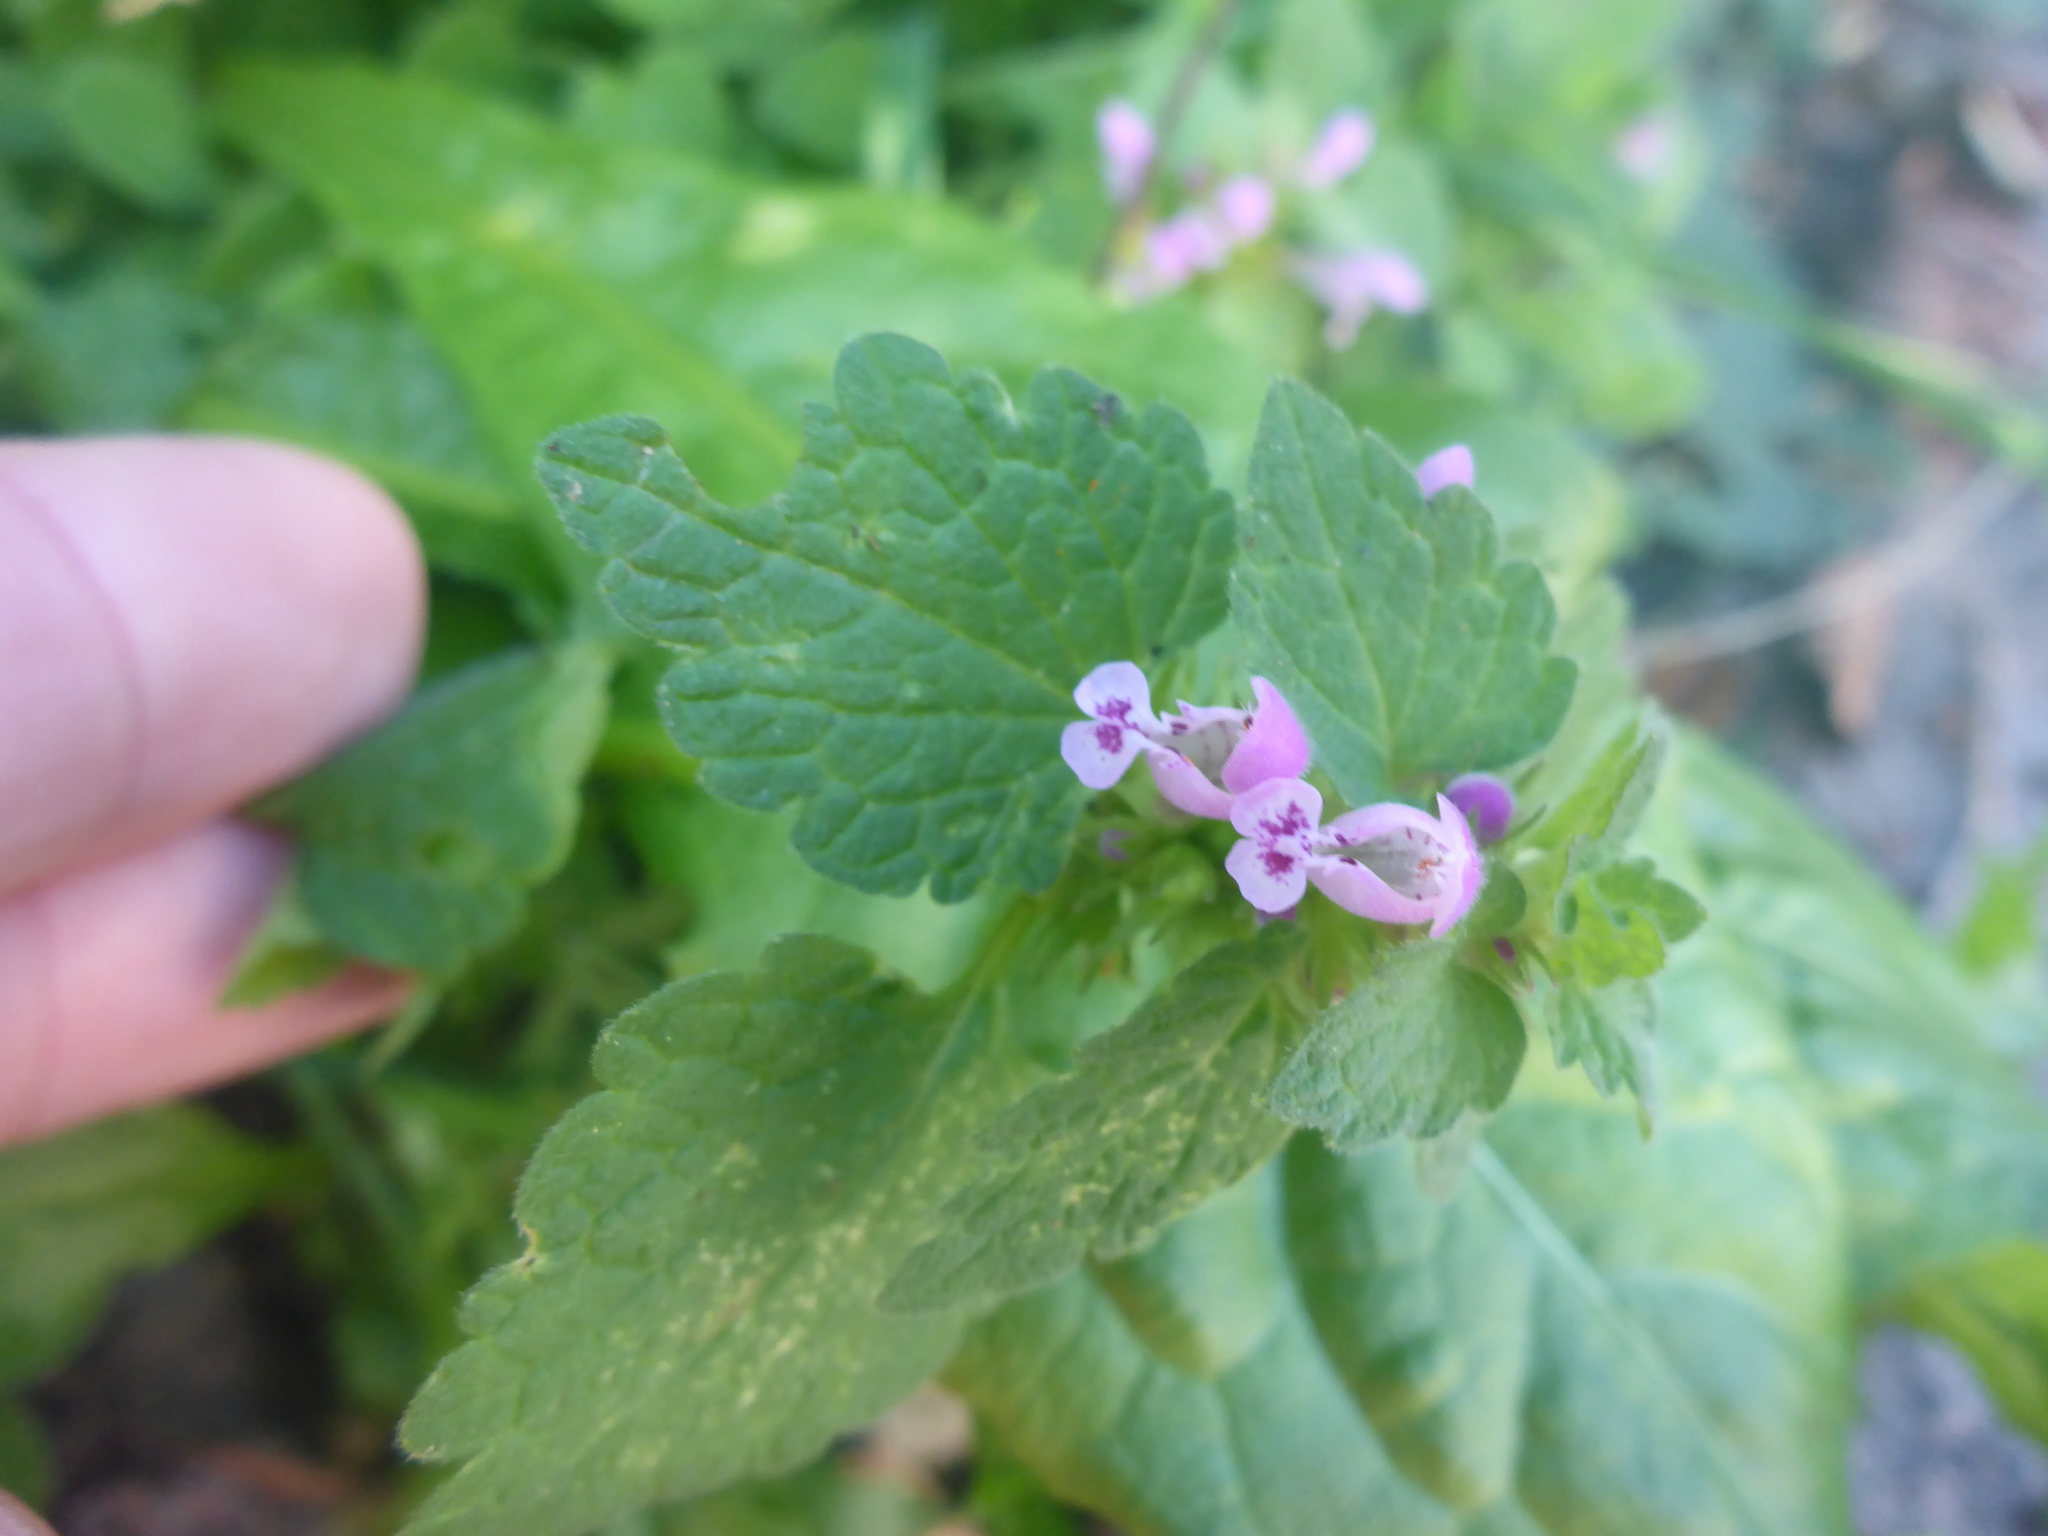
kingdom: Plantae
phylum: Tracheophyta
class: Magnoliopsida
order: Lamiales
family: Lamiaceae
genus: Lamium
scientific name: Lamium purpureum
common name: Red dead-nettle
